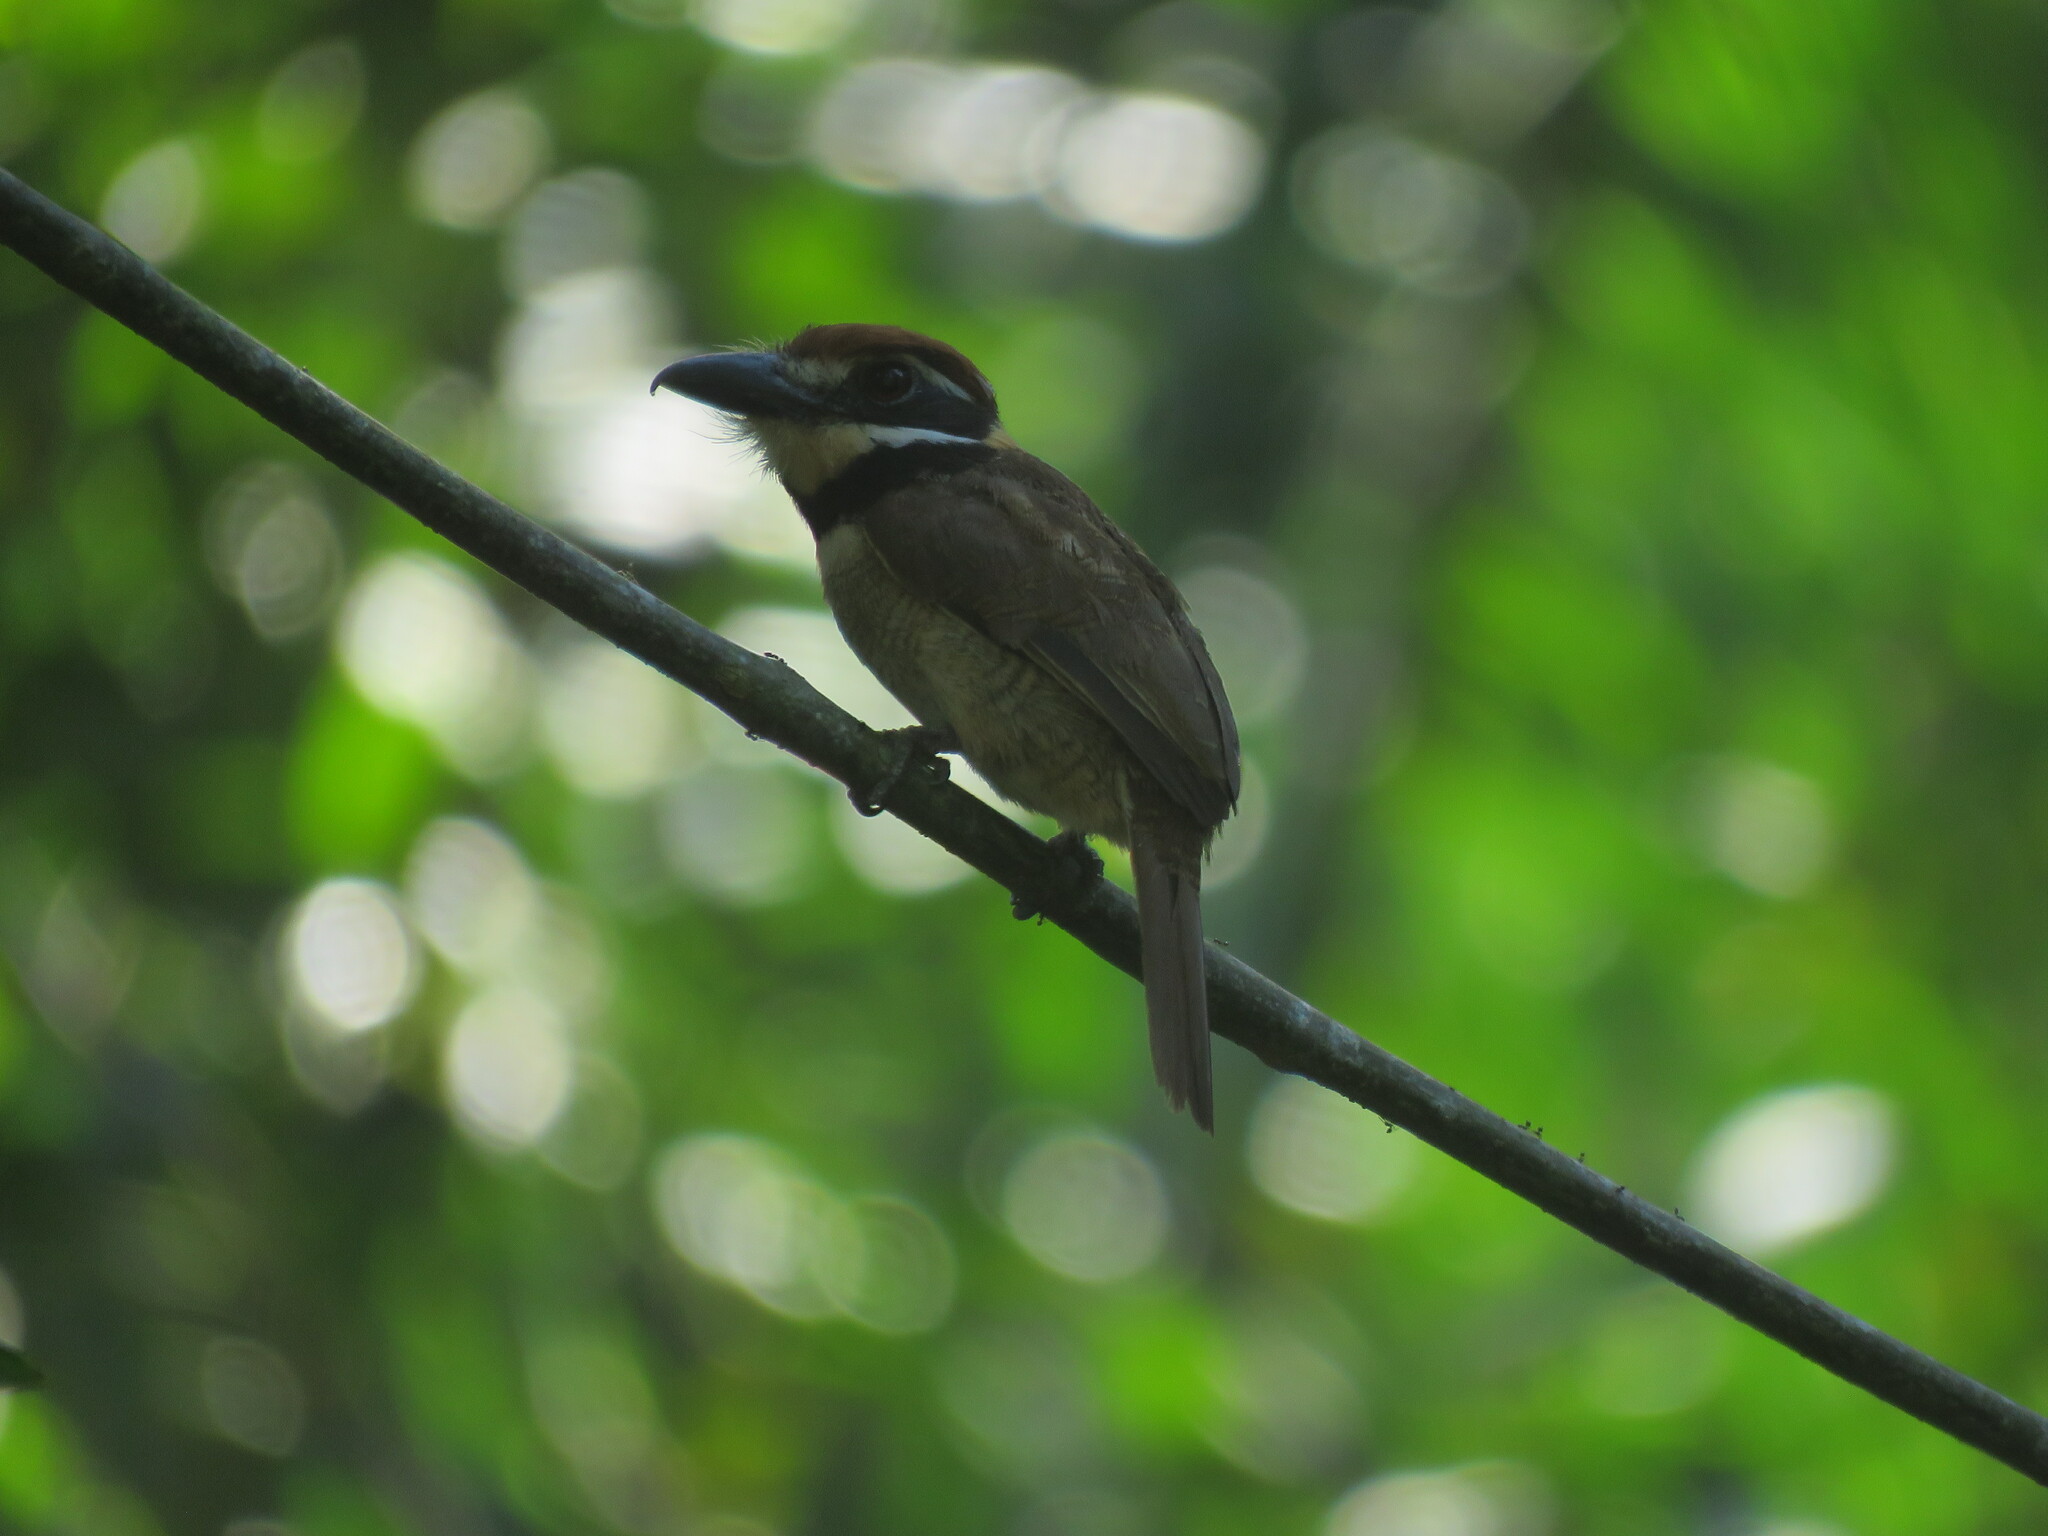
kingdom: Animalia
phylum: Chordata
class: Aves
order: Piciformes
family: Bucconidae
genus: Bucco
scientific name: Bucco macrodactylus
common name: Chestnut-capped puffbird
